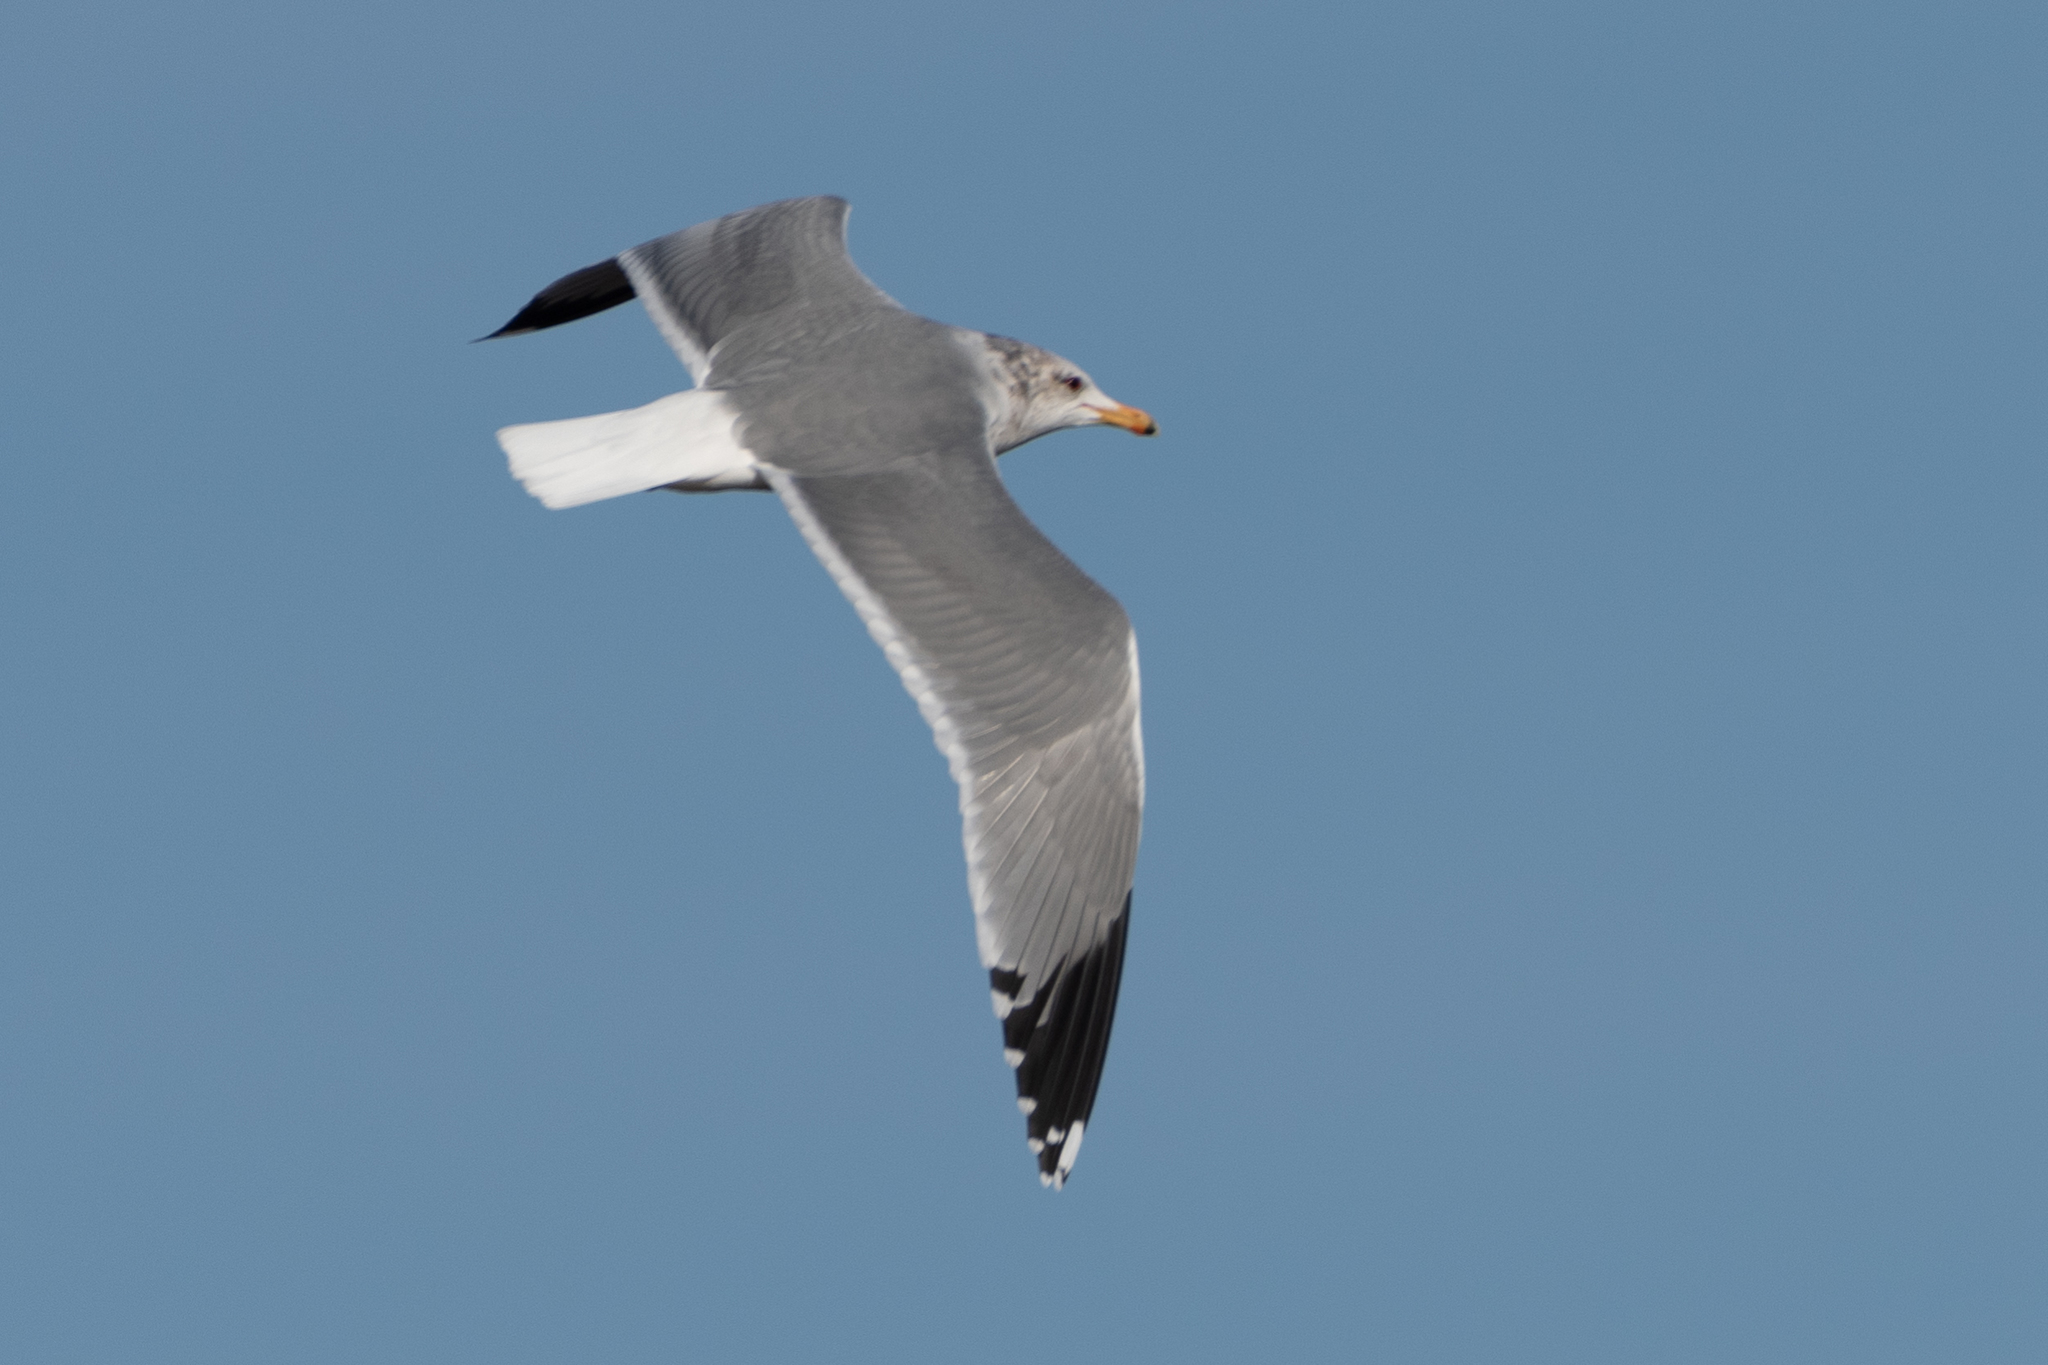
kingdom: Animalia
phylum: Chordata
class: Aves
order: Charadriiformes
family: Laridae
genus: Larus
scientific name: Larus californicus
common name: California gull
